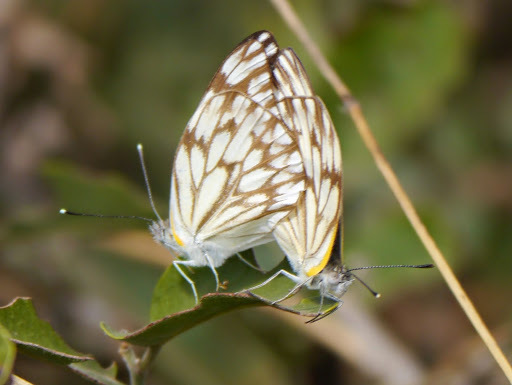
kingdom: Animalia
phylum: Arthropoda
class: Insecta
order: Lepidoptera
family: Pieridae
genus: Belenois
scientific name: Belenois gidica
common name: Pointed caper white
